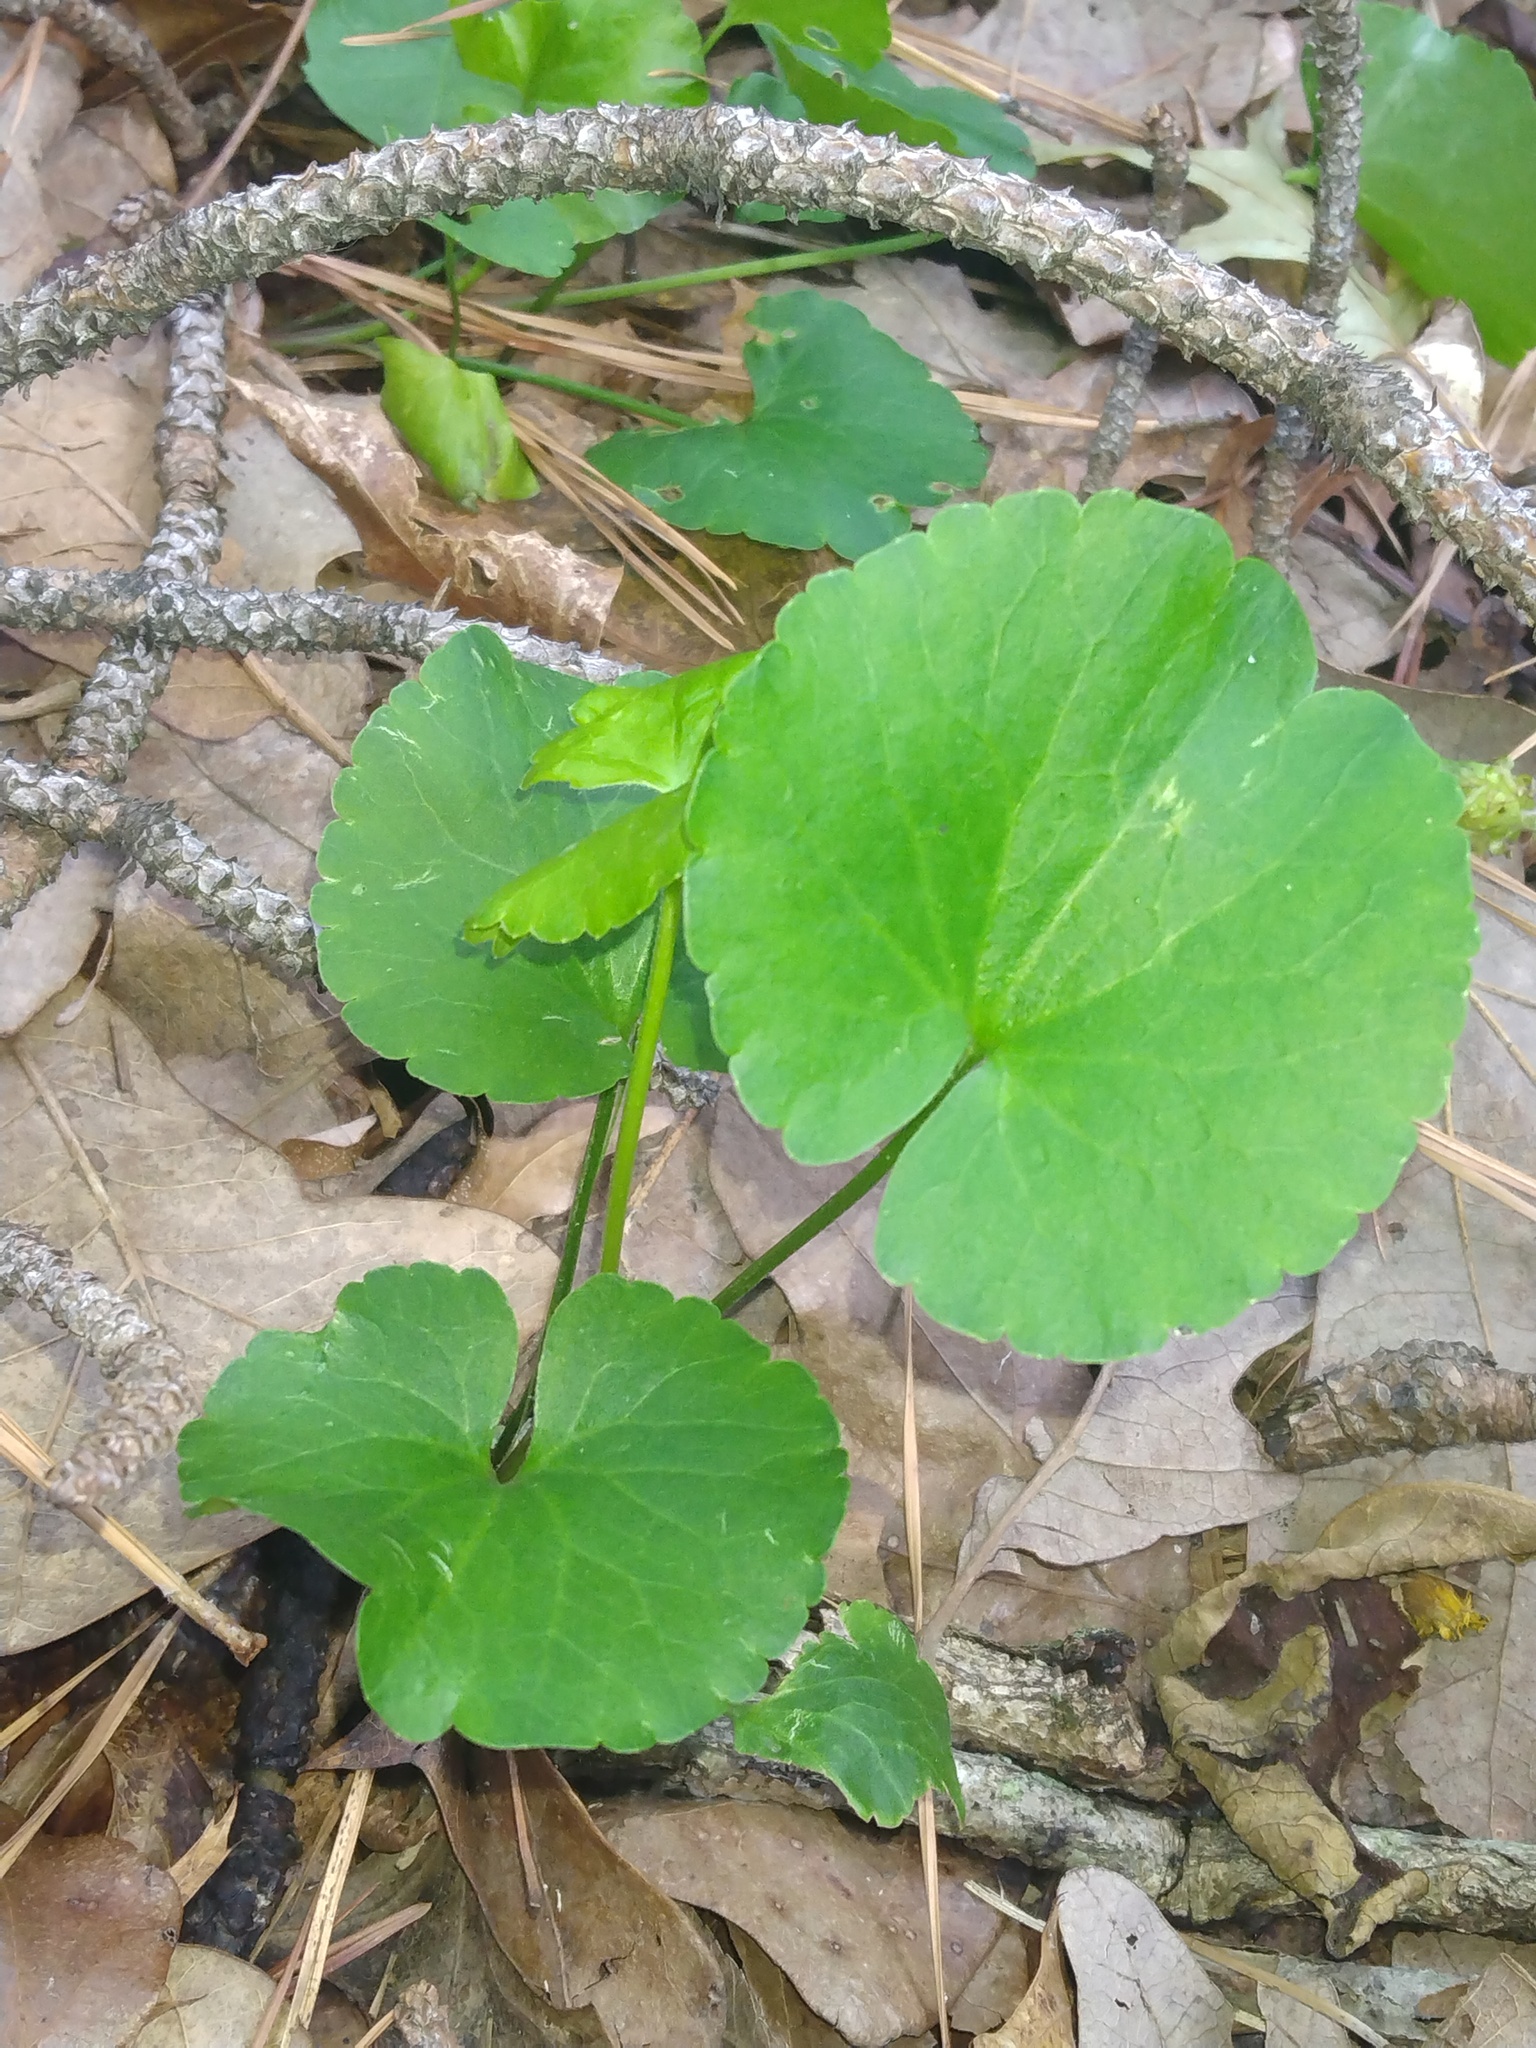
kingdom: Plantae
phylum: Tracheophyta
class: Magnoliopsida
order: Ranunculales
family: Ranunculaceae
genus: Ranunculus
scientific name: Ranunculus abortivus
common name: Early wood buttercup
